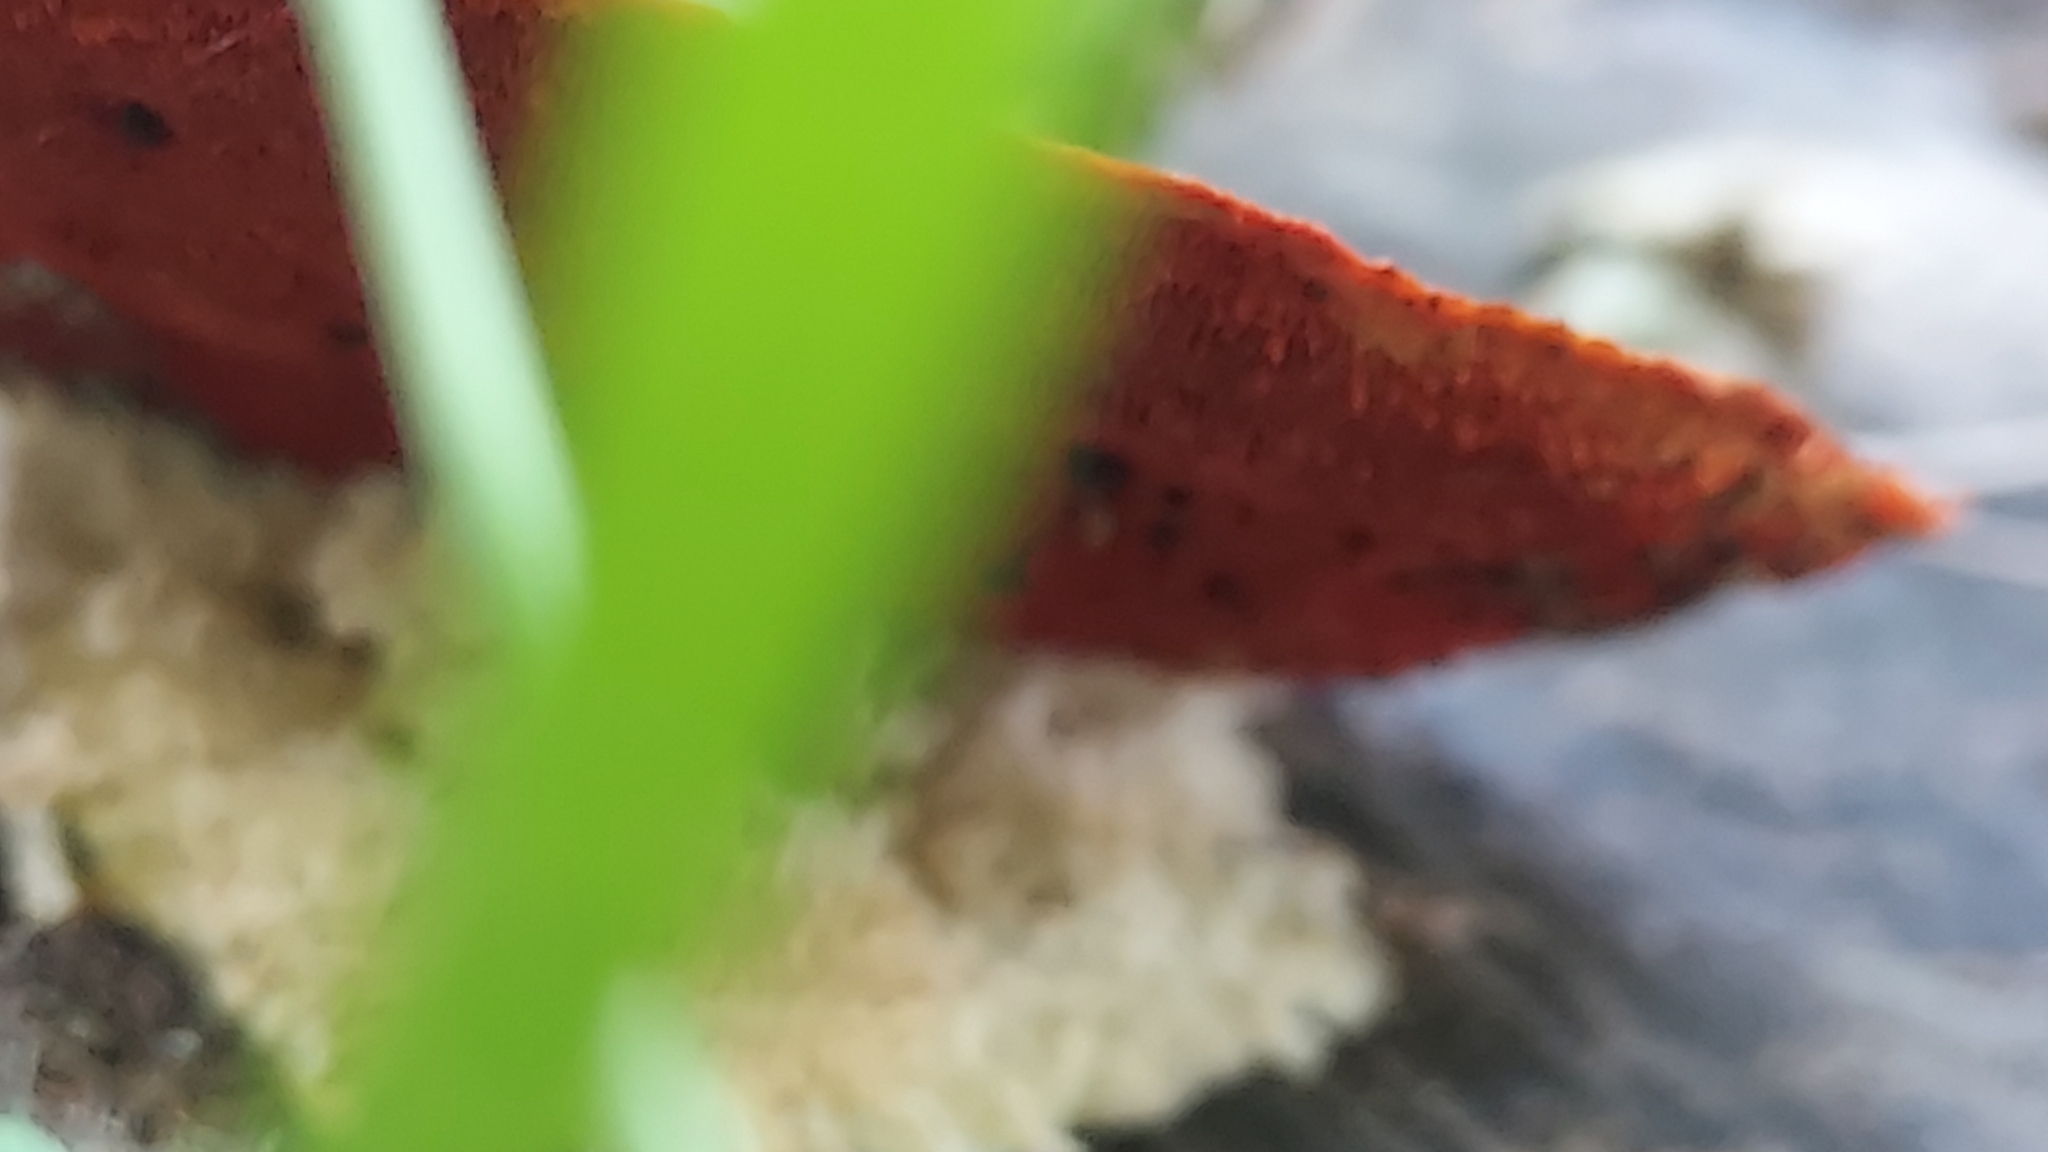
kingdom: Fungi
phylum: Basidiomycota
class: Agaricomycetes
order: Polyporales
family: Polyporaceae
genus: Trametes
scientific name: Trametes coccinea
